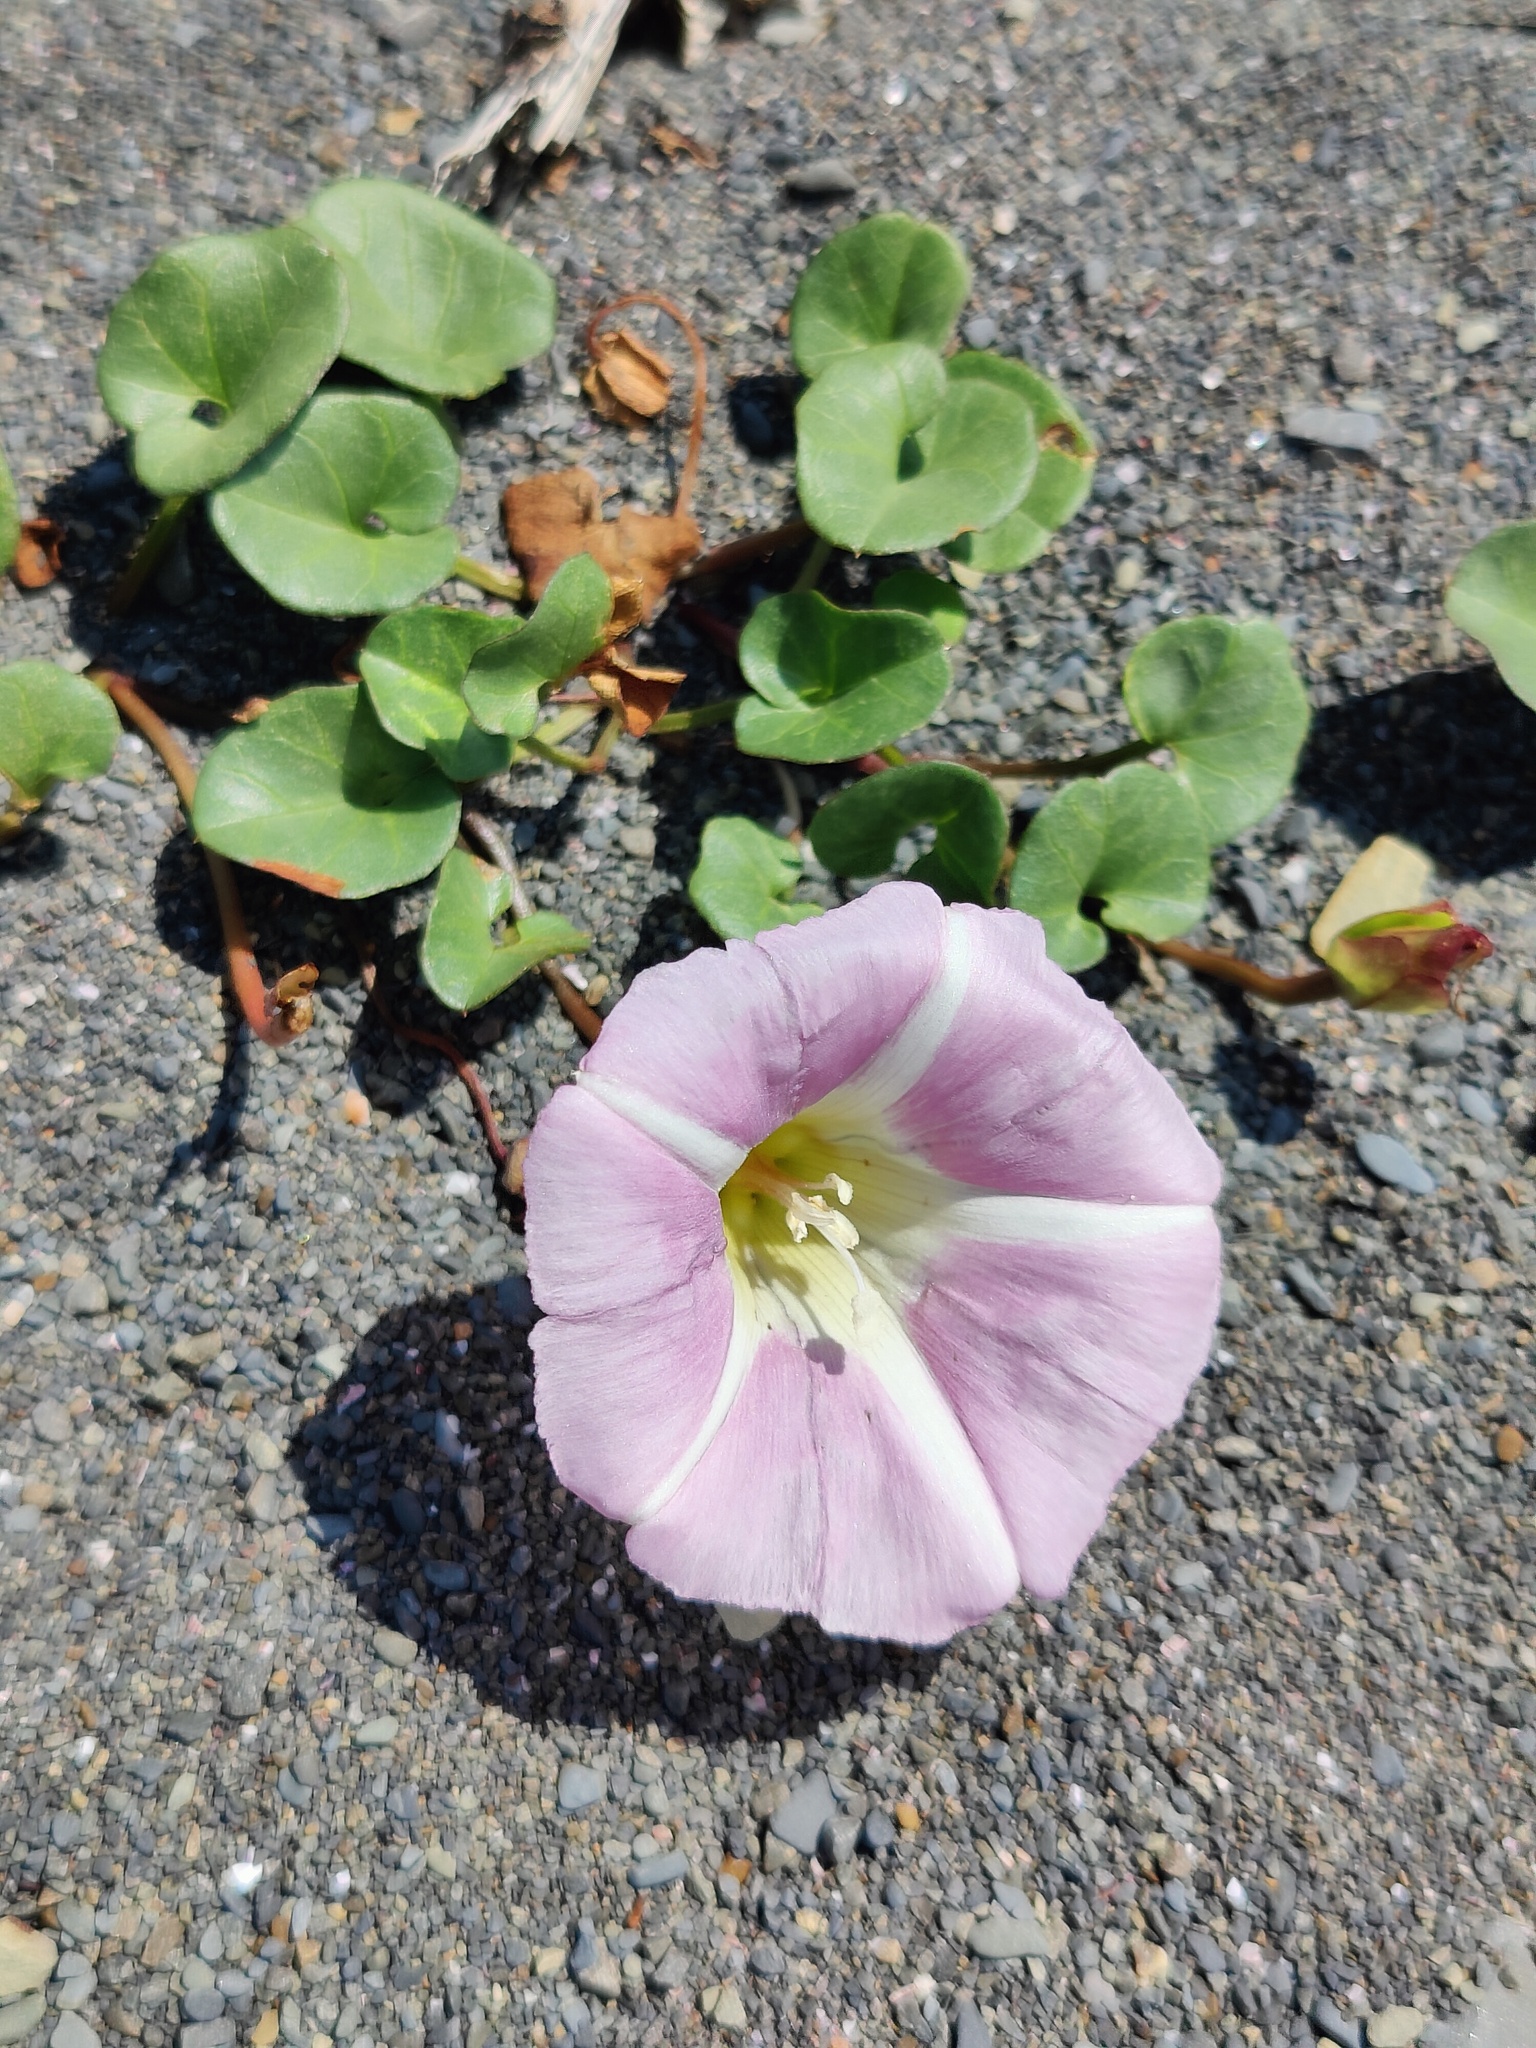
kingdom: Plantae
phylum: Tracheophyta
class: Magnoliopsida
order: Solanales
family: Convolvulaceae
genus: Calystegia
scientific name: Calystegia soldanella
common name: Sea bindweed
